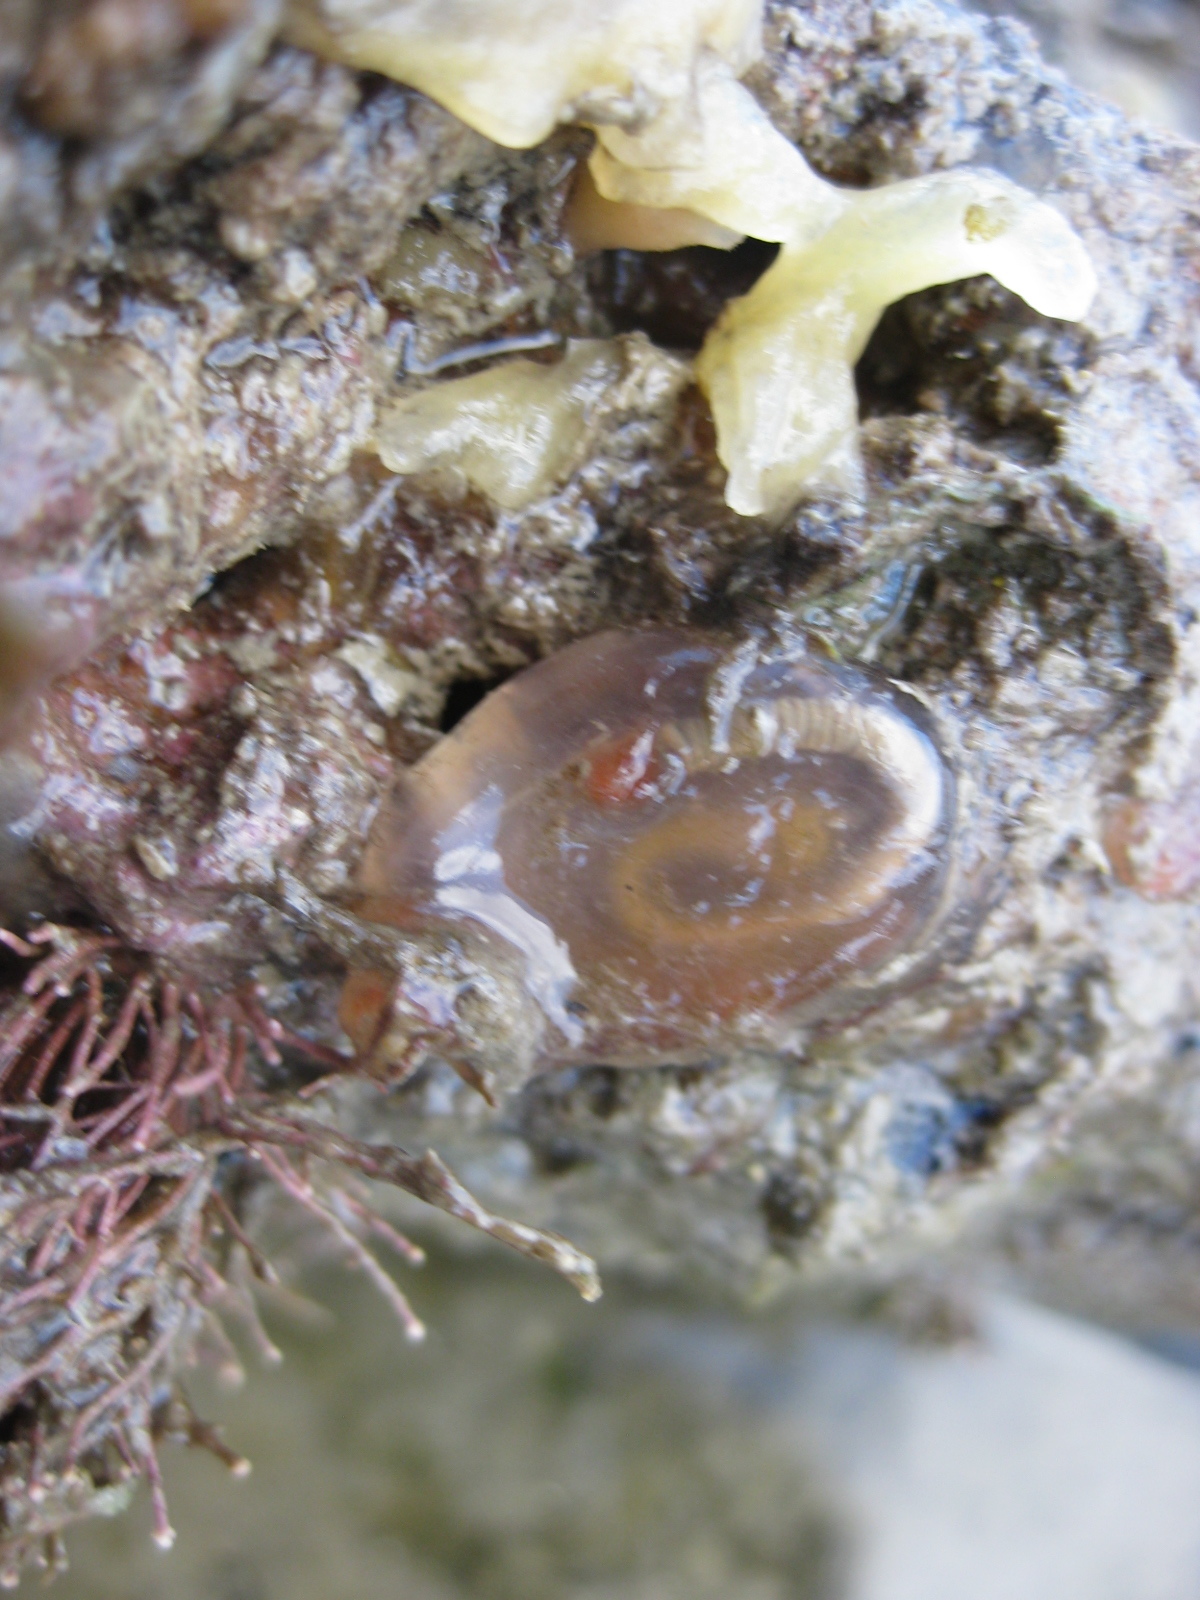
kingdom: Animalia
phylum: Chordata
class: Ascidiacea
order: Phlebobranchia
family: Corellidae
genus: Corella
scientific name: Corella eumyota
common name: Orange-tipped sea squirt
